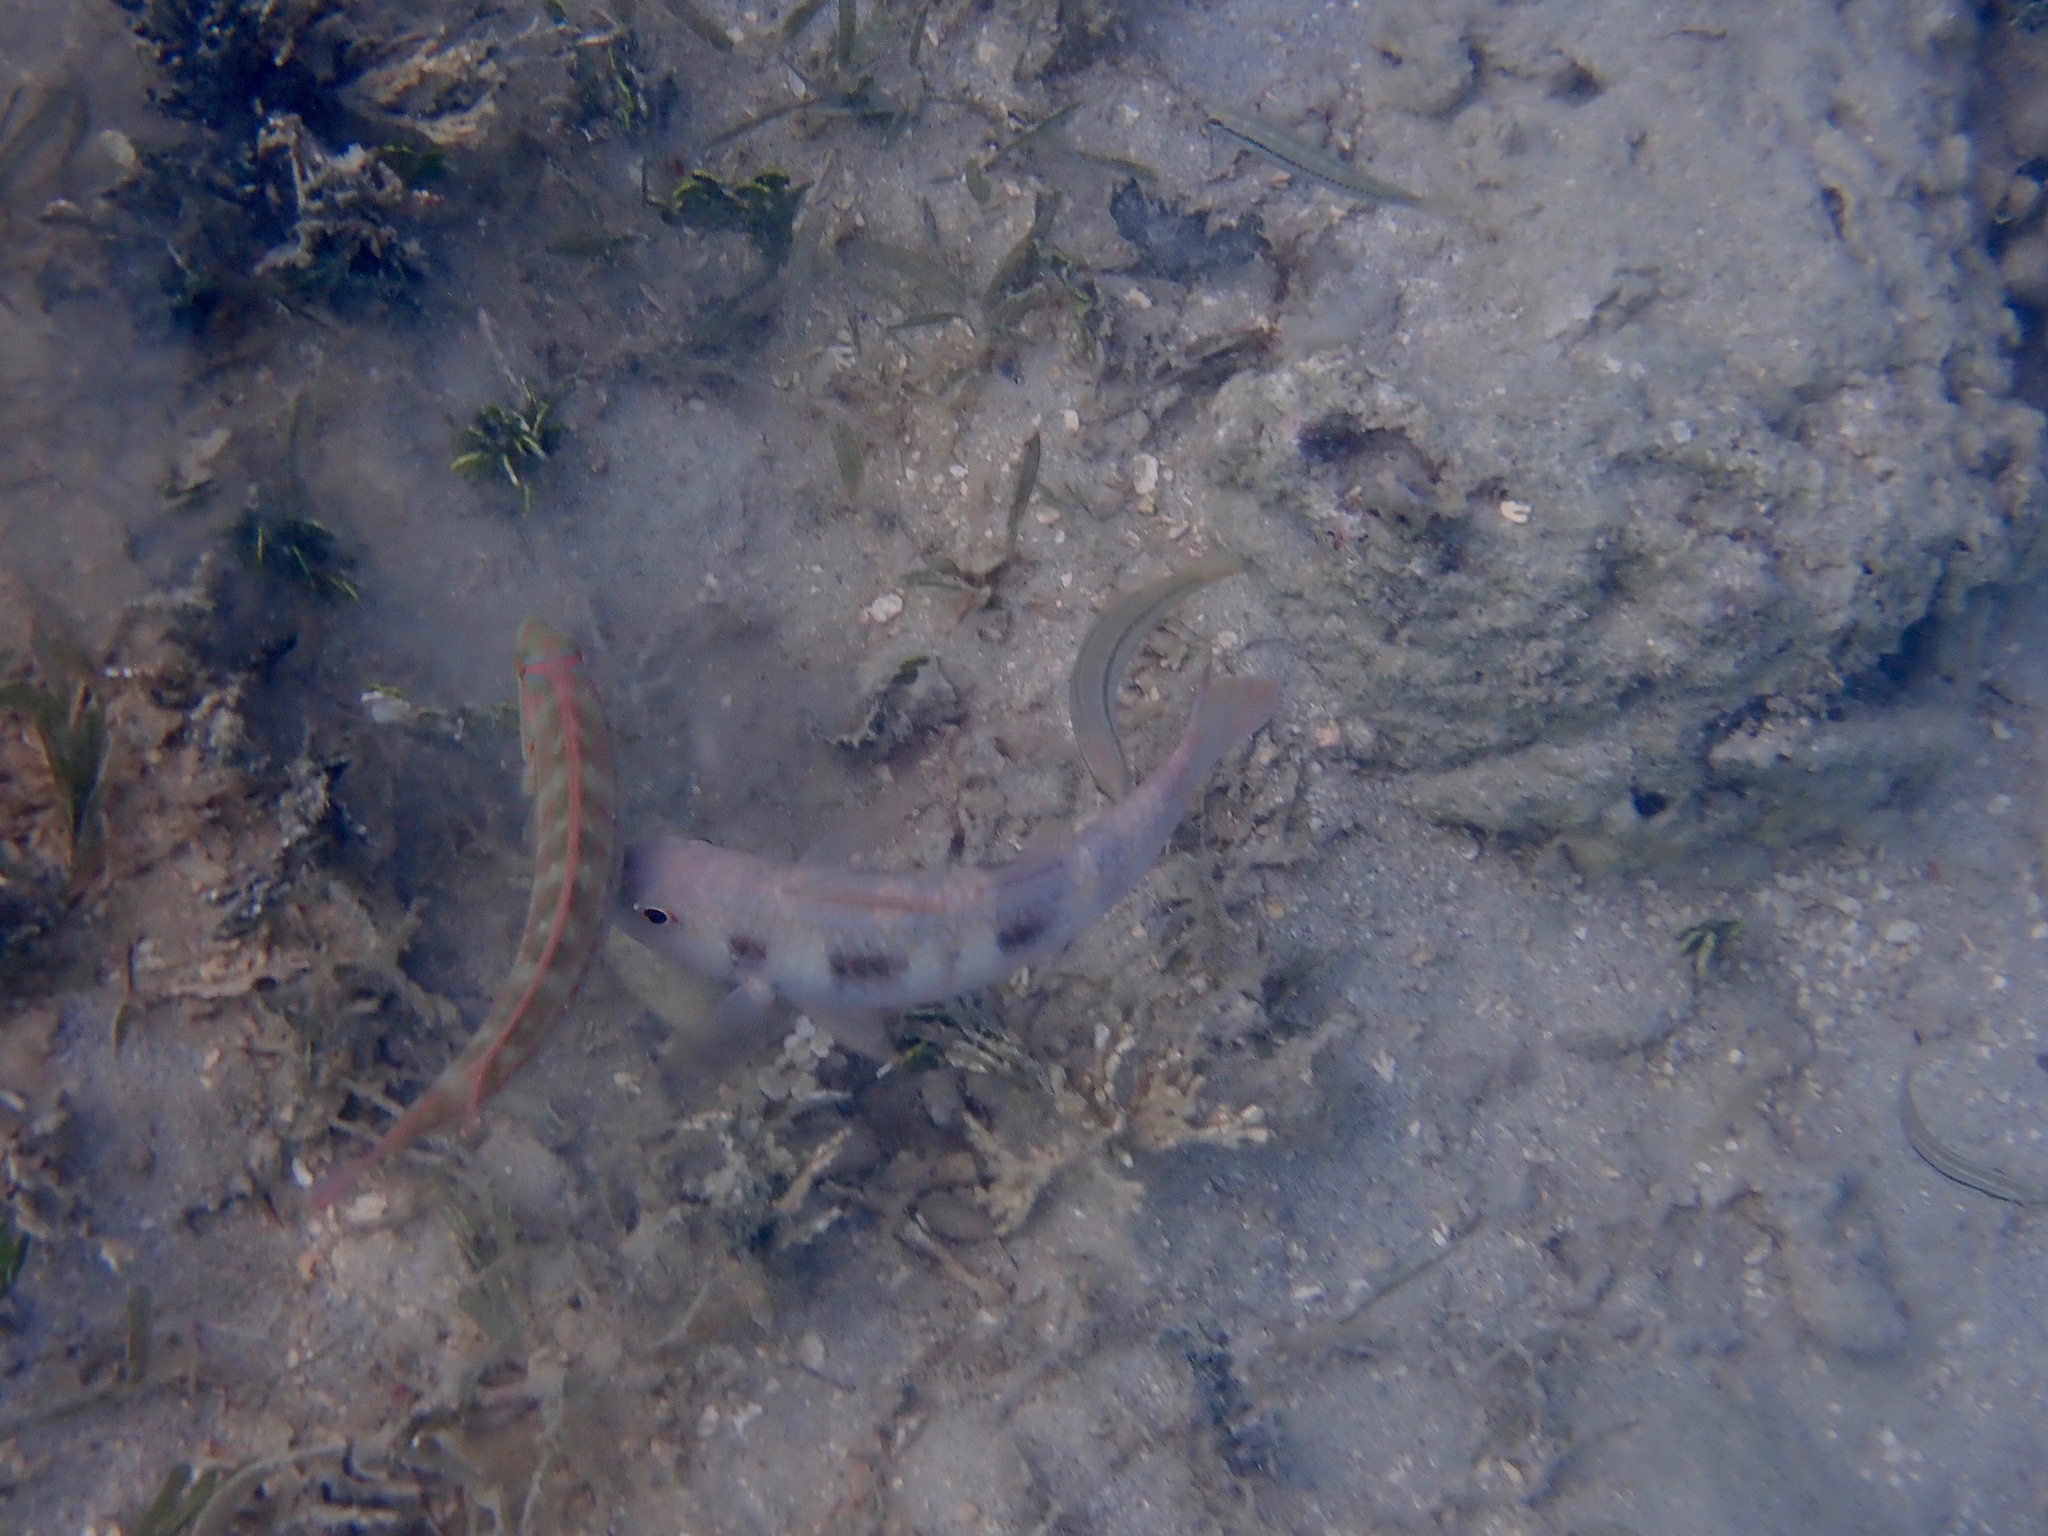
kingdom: Animalia
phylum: Chordata
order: Perciformes
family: Mullidae
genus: Pseudupeneus
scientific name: Pseudupeneus maculatus
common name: Spotted goatfish
